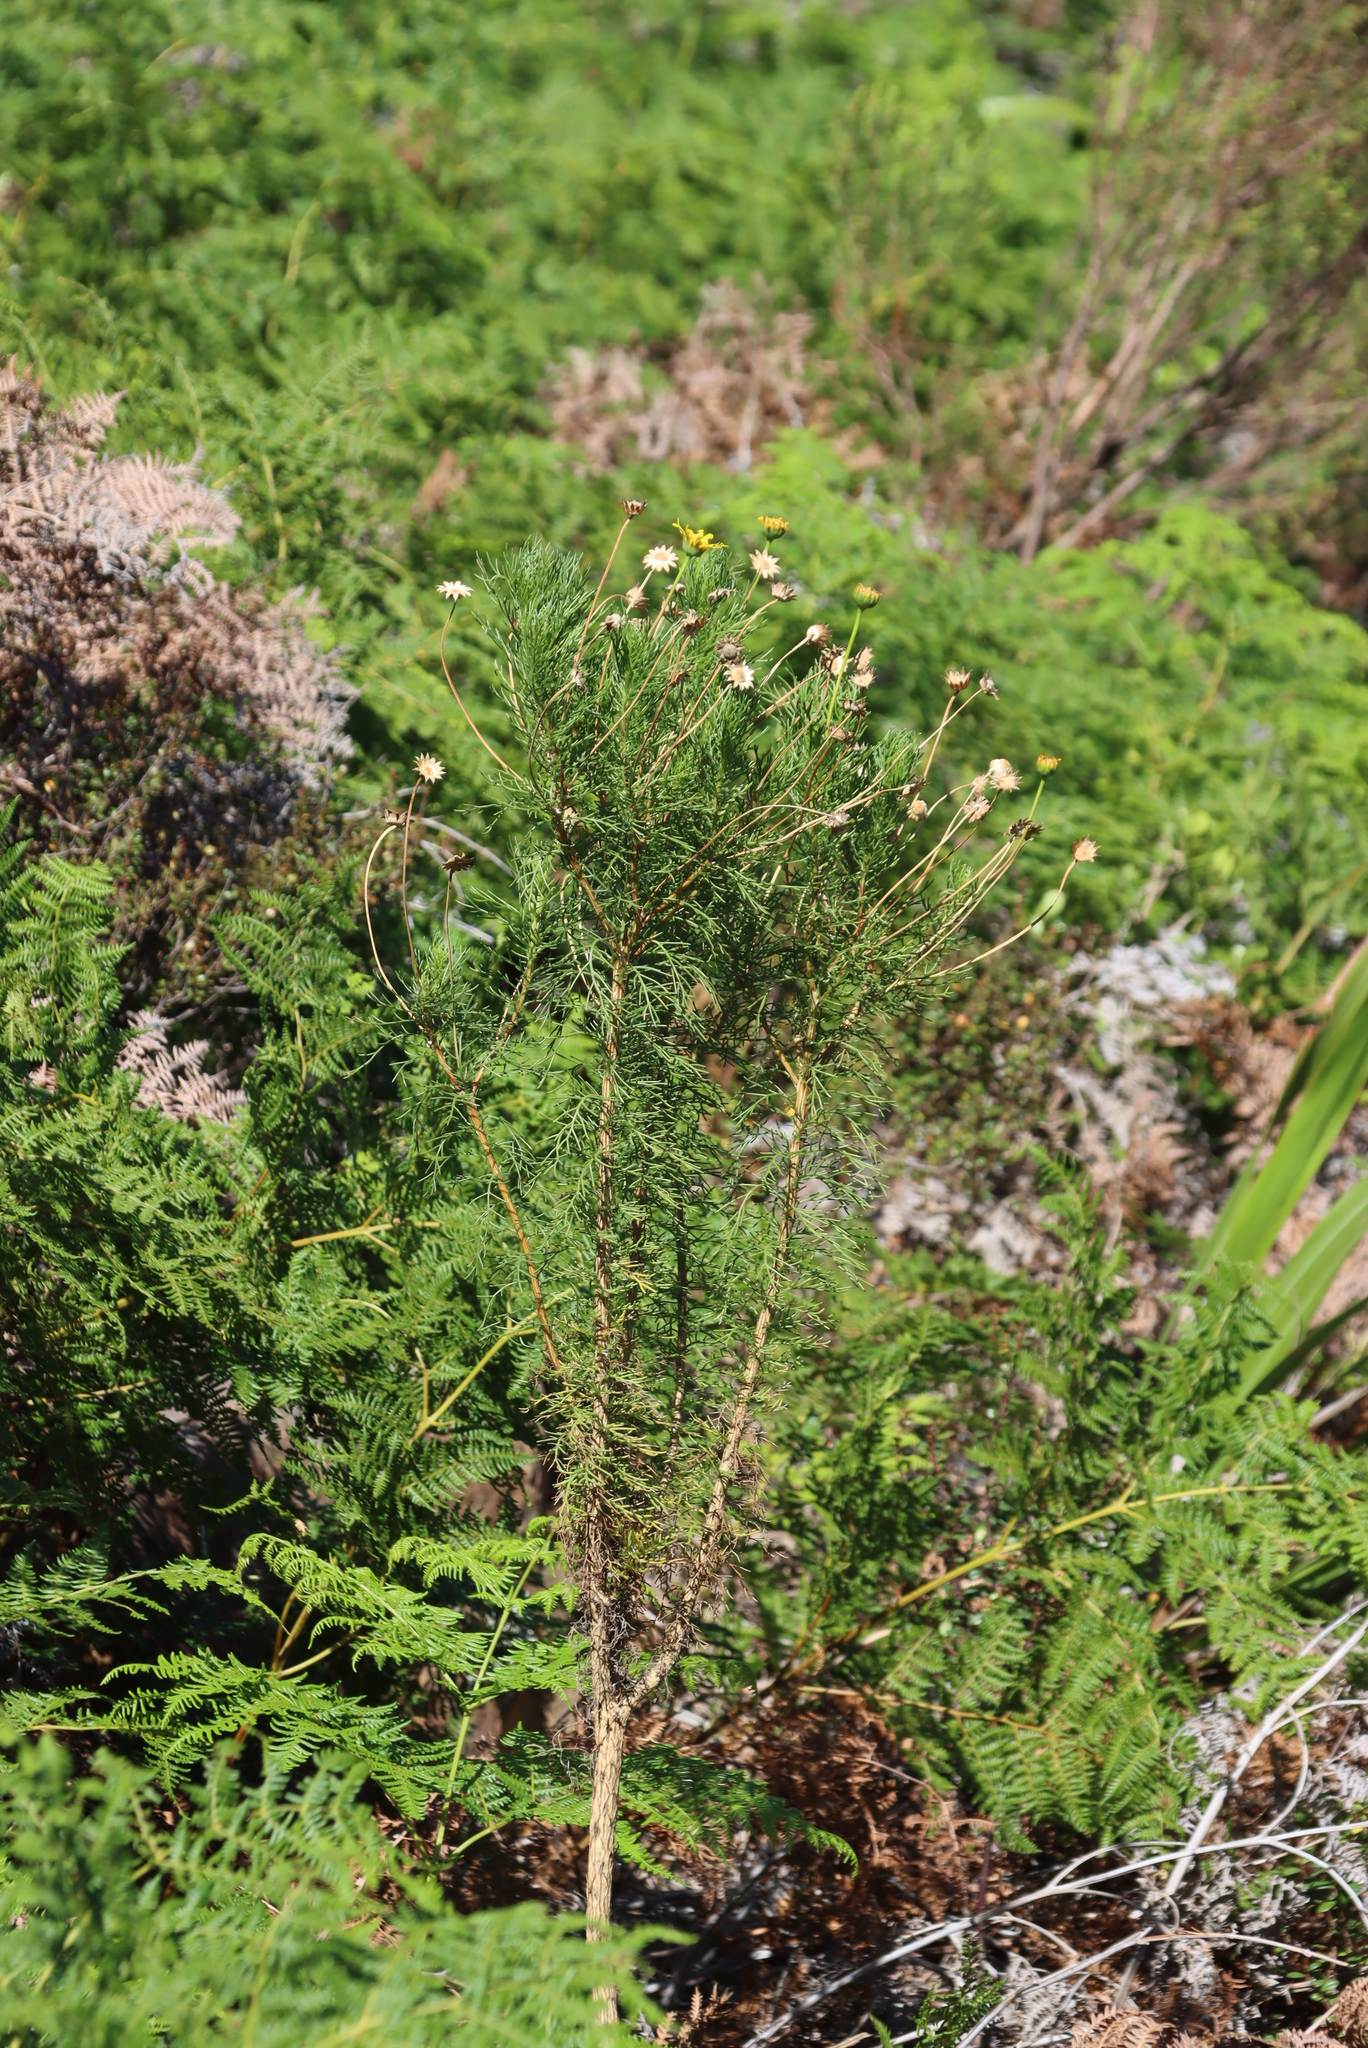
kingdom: Plantae
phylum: Tracheophyta
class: Magnoliopsida
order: Asterales
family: Asteraceae
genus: Euryops
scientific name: Euryops abrotanifolius
